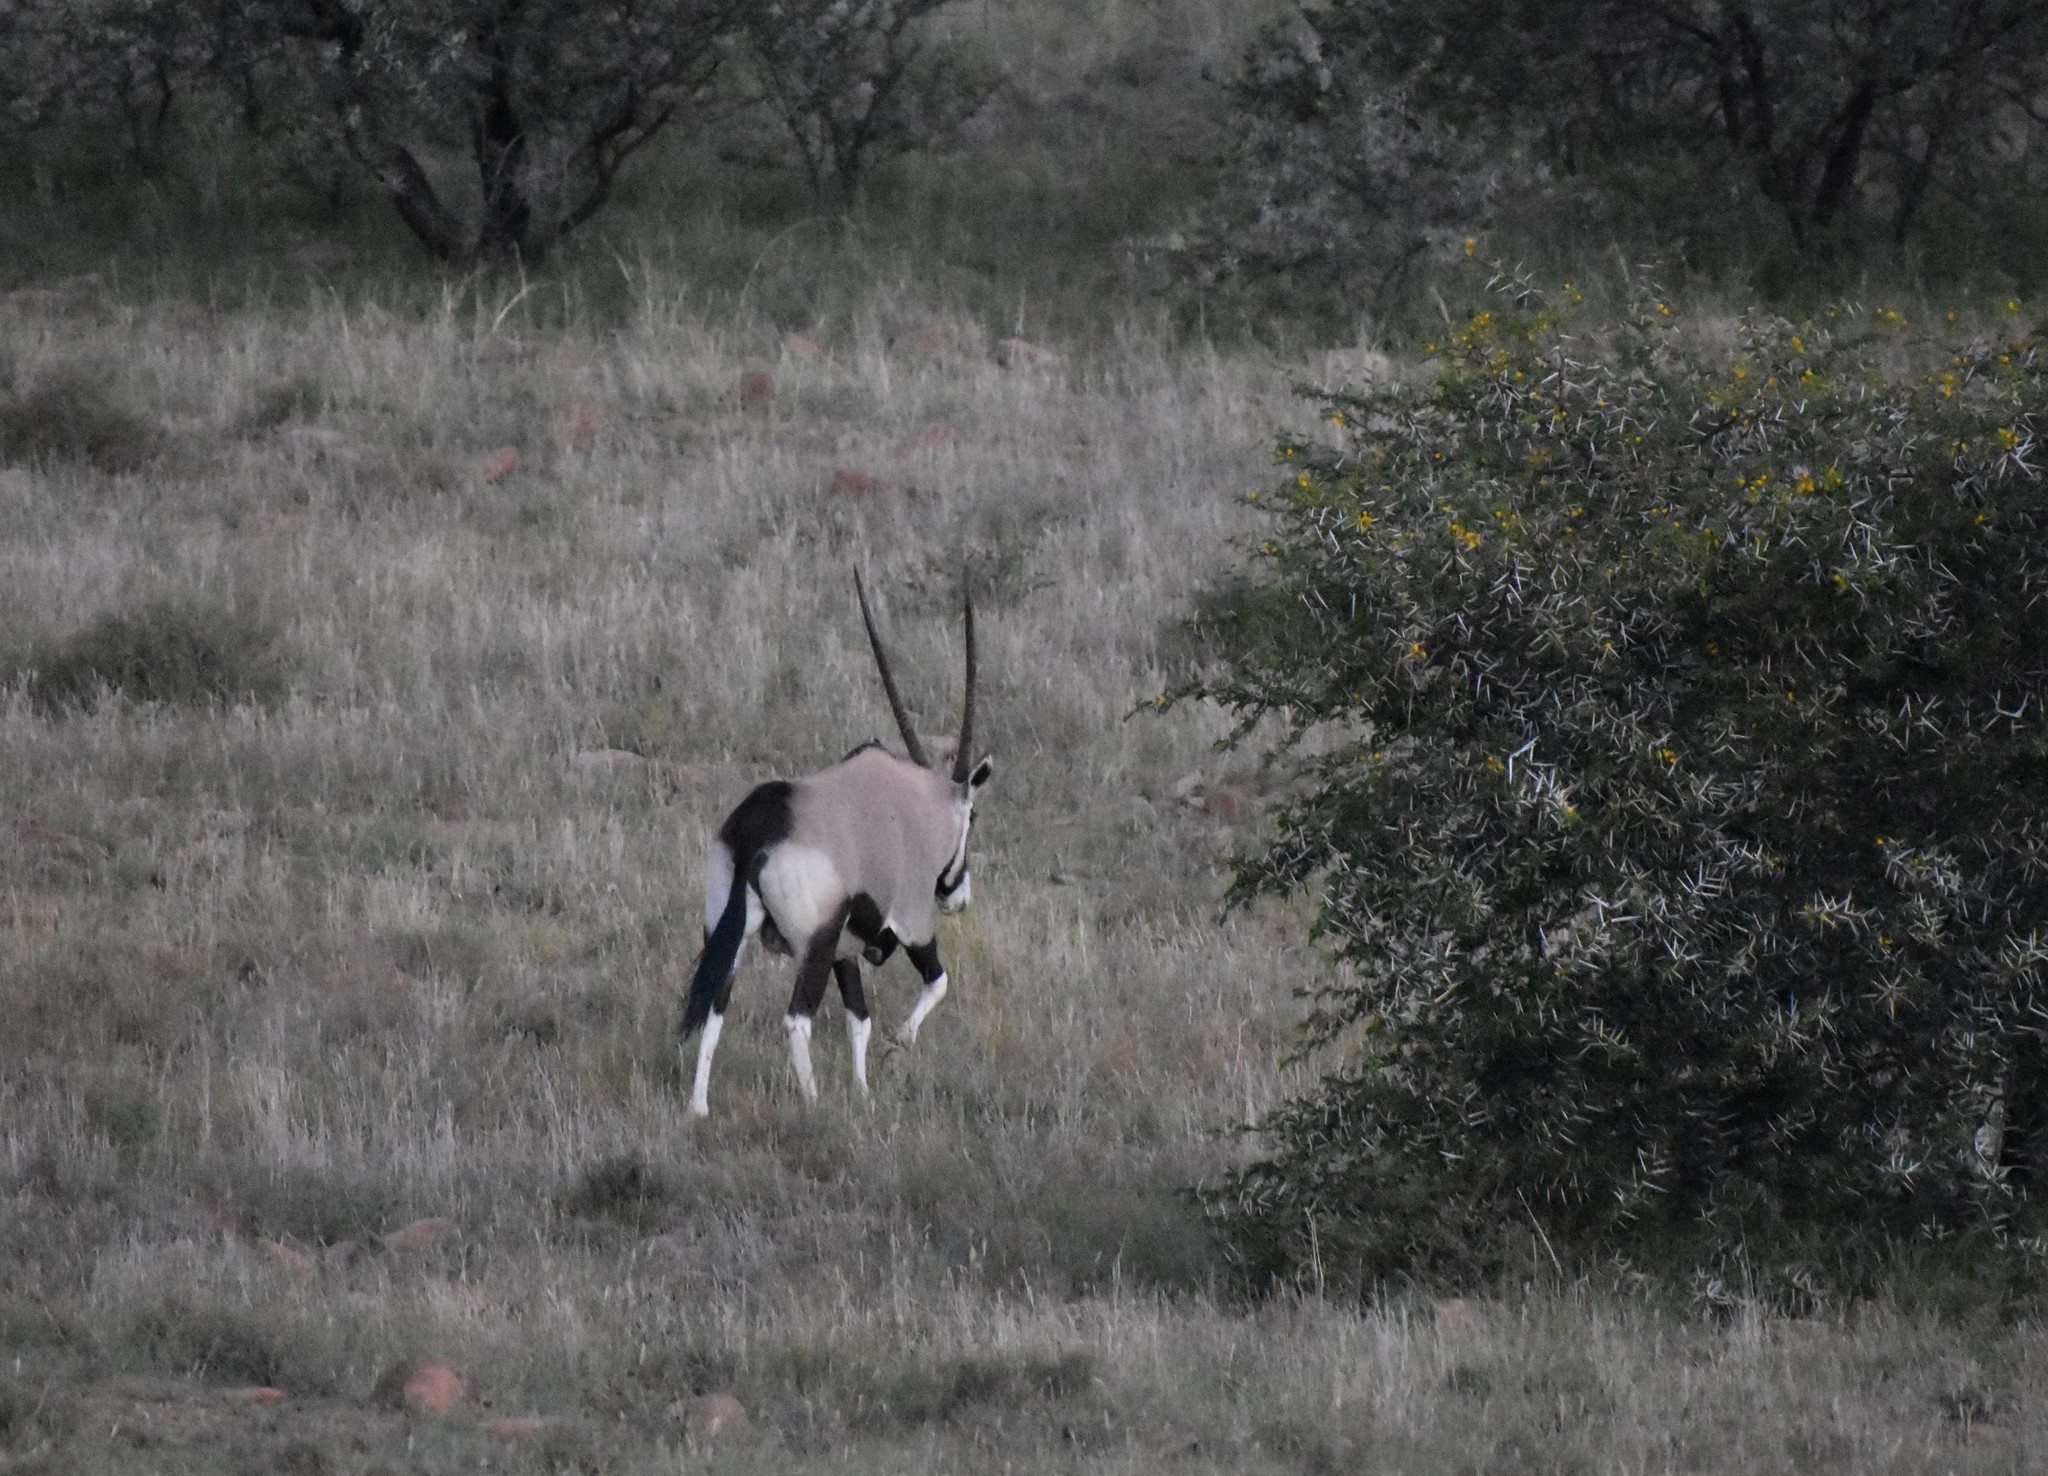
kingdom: Animalia
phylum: Chordata
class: Mammalia
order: Artiodactyla
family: Bovidae
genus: Oryx
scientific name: Oryx gazella
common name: Gemsbok
